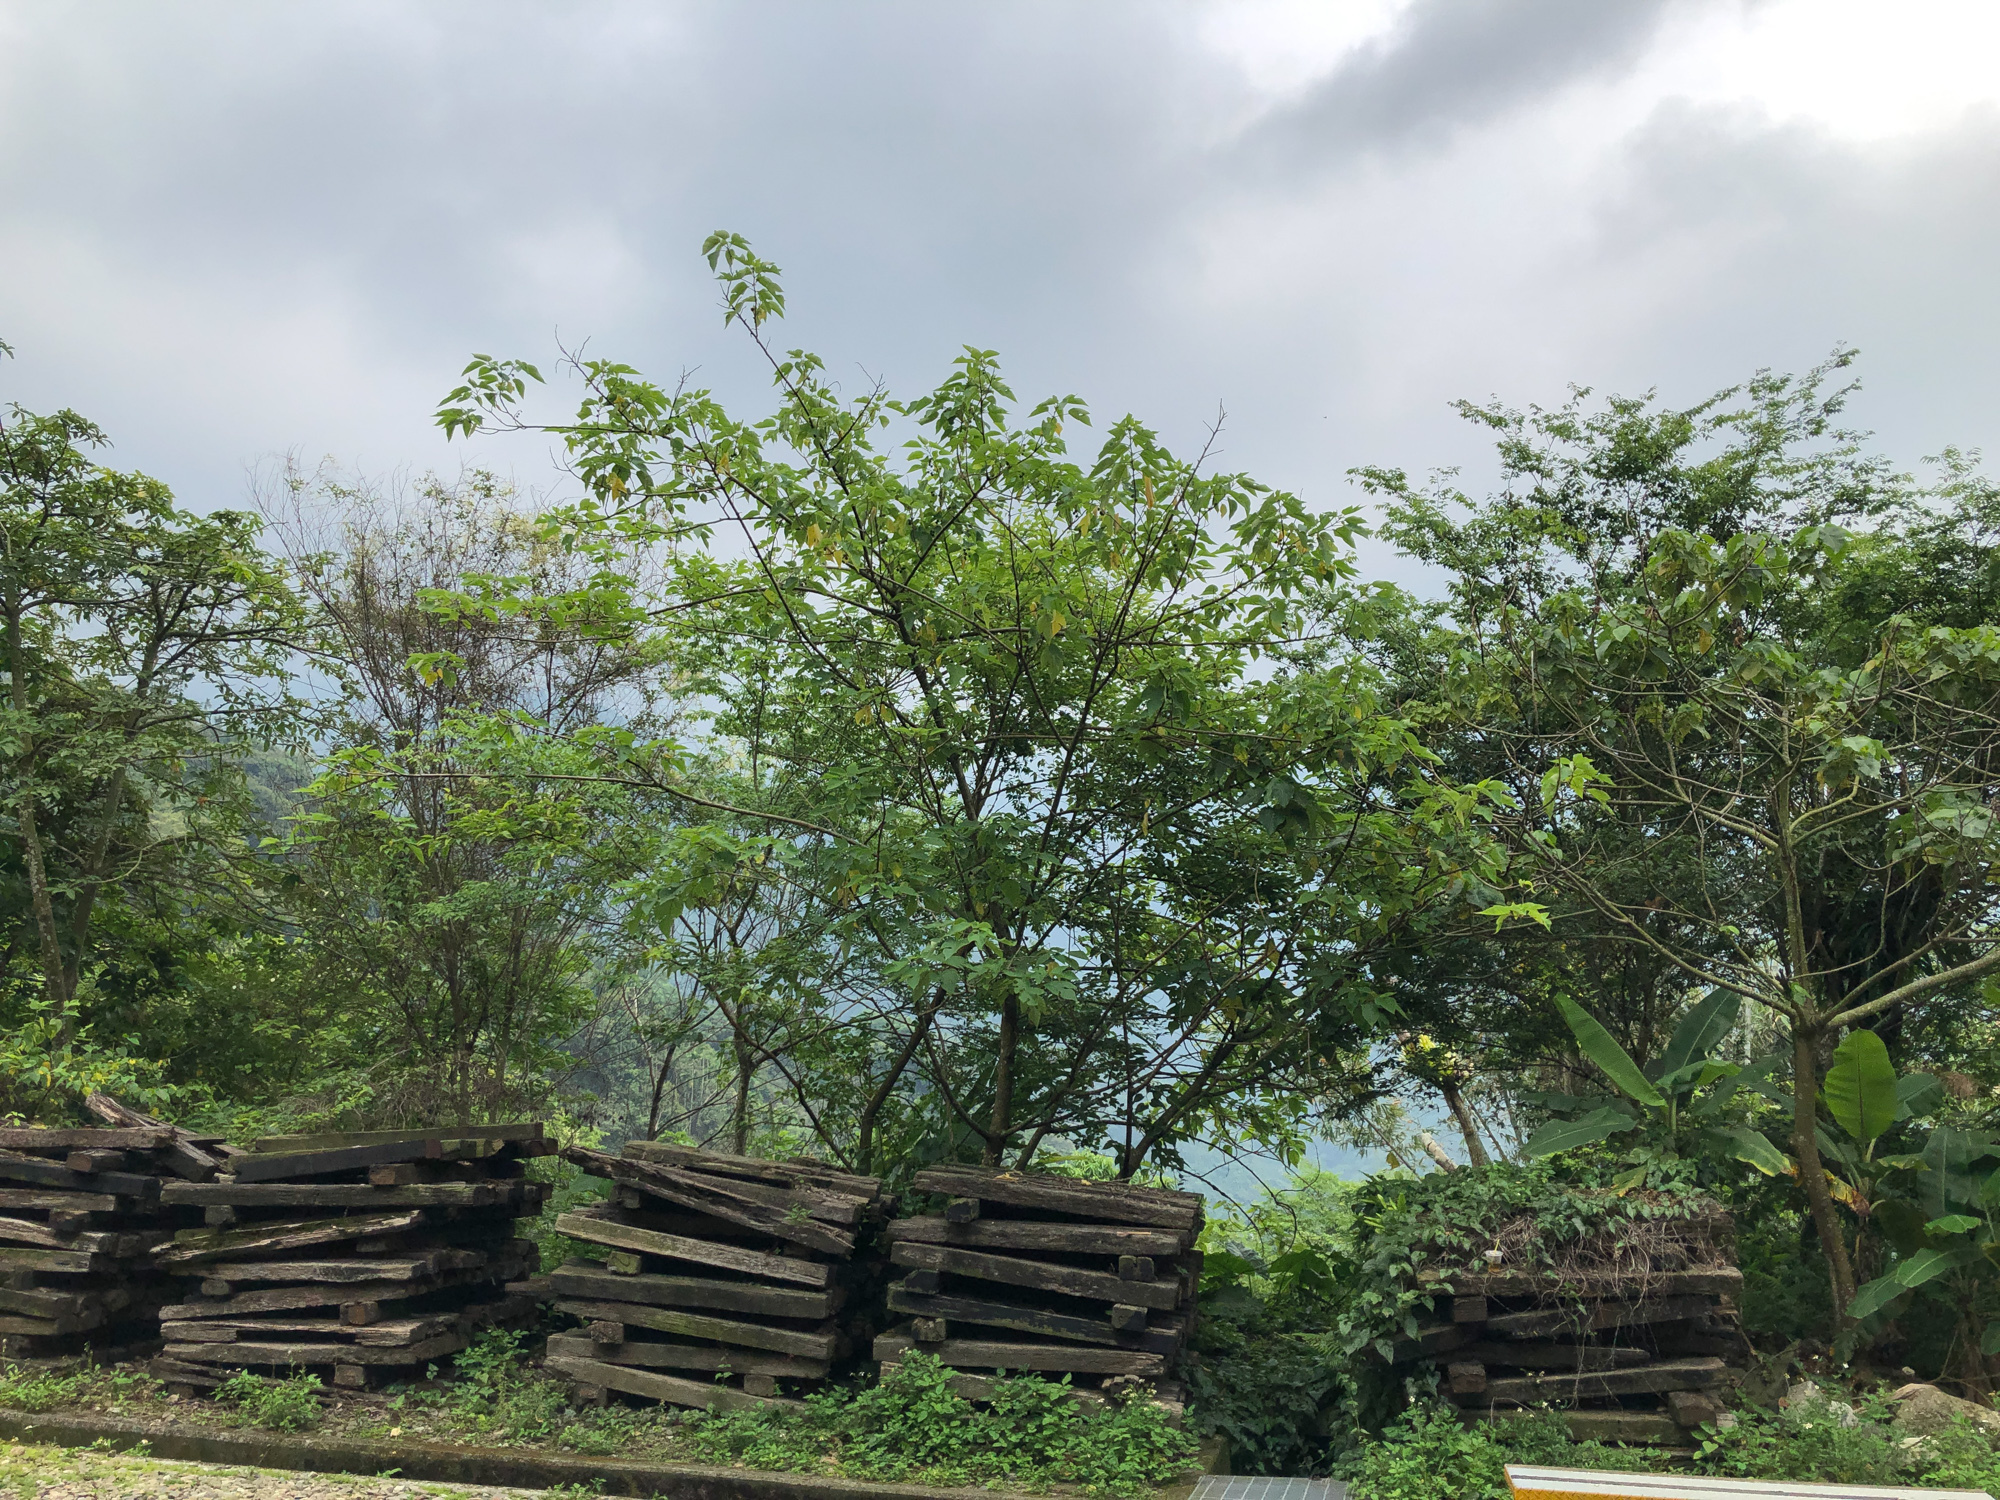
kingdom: Plantae
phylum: Tracheophyta
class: Magnoliopsida
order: Rosales
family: Moraceae
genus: Broussonetia
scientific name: Broussonetia papyrifera
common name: Paper mulberry
